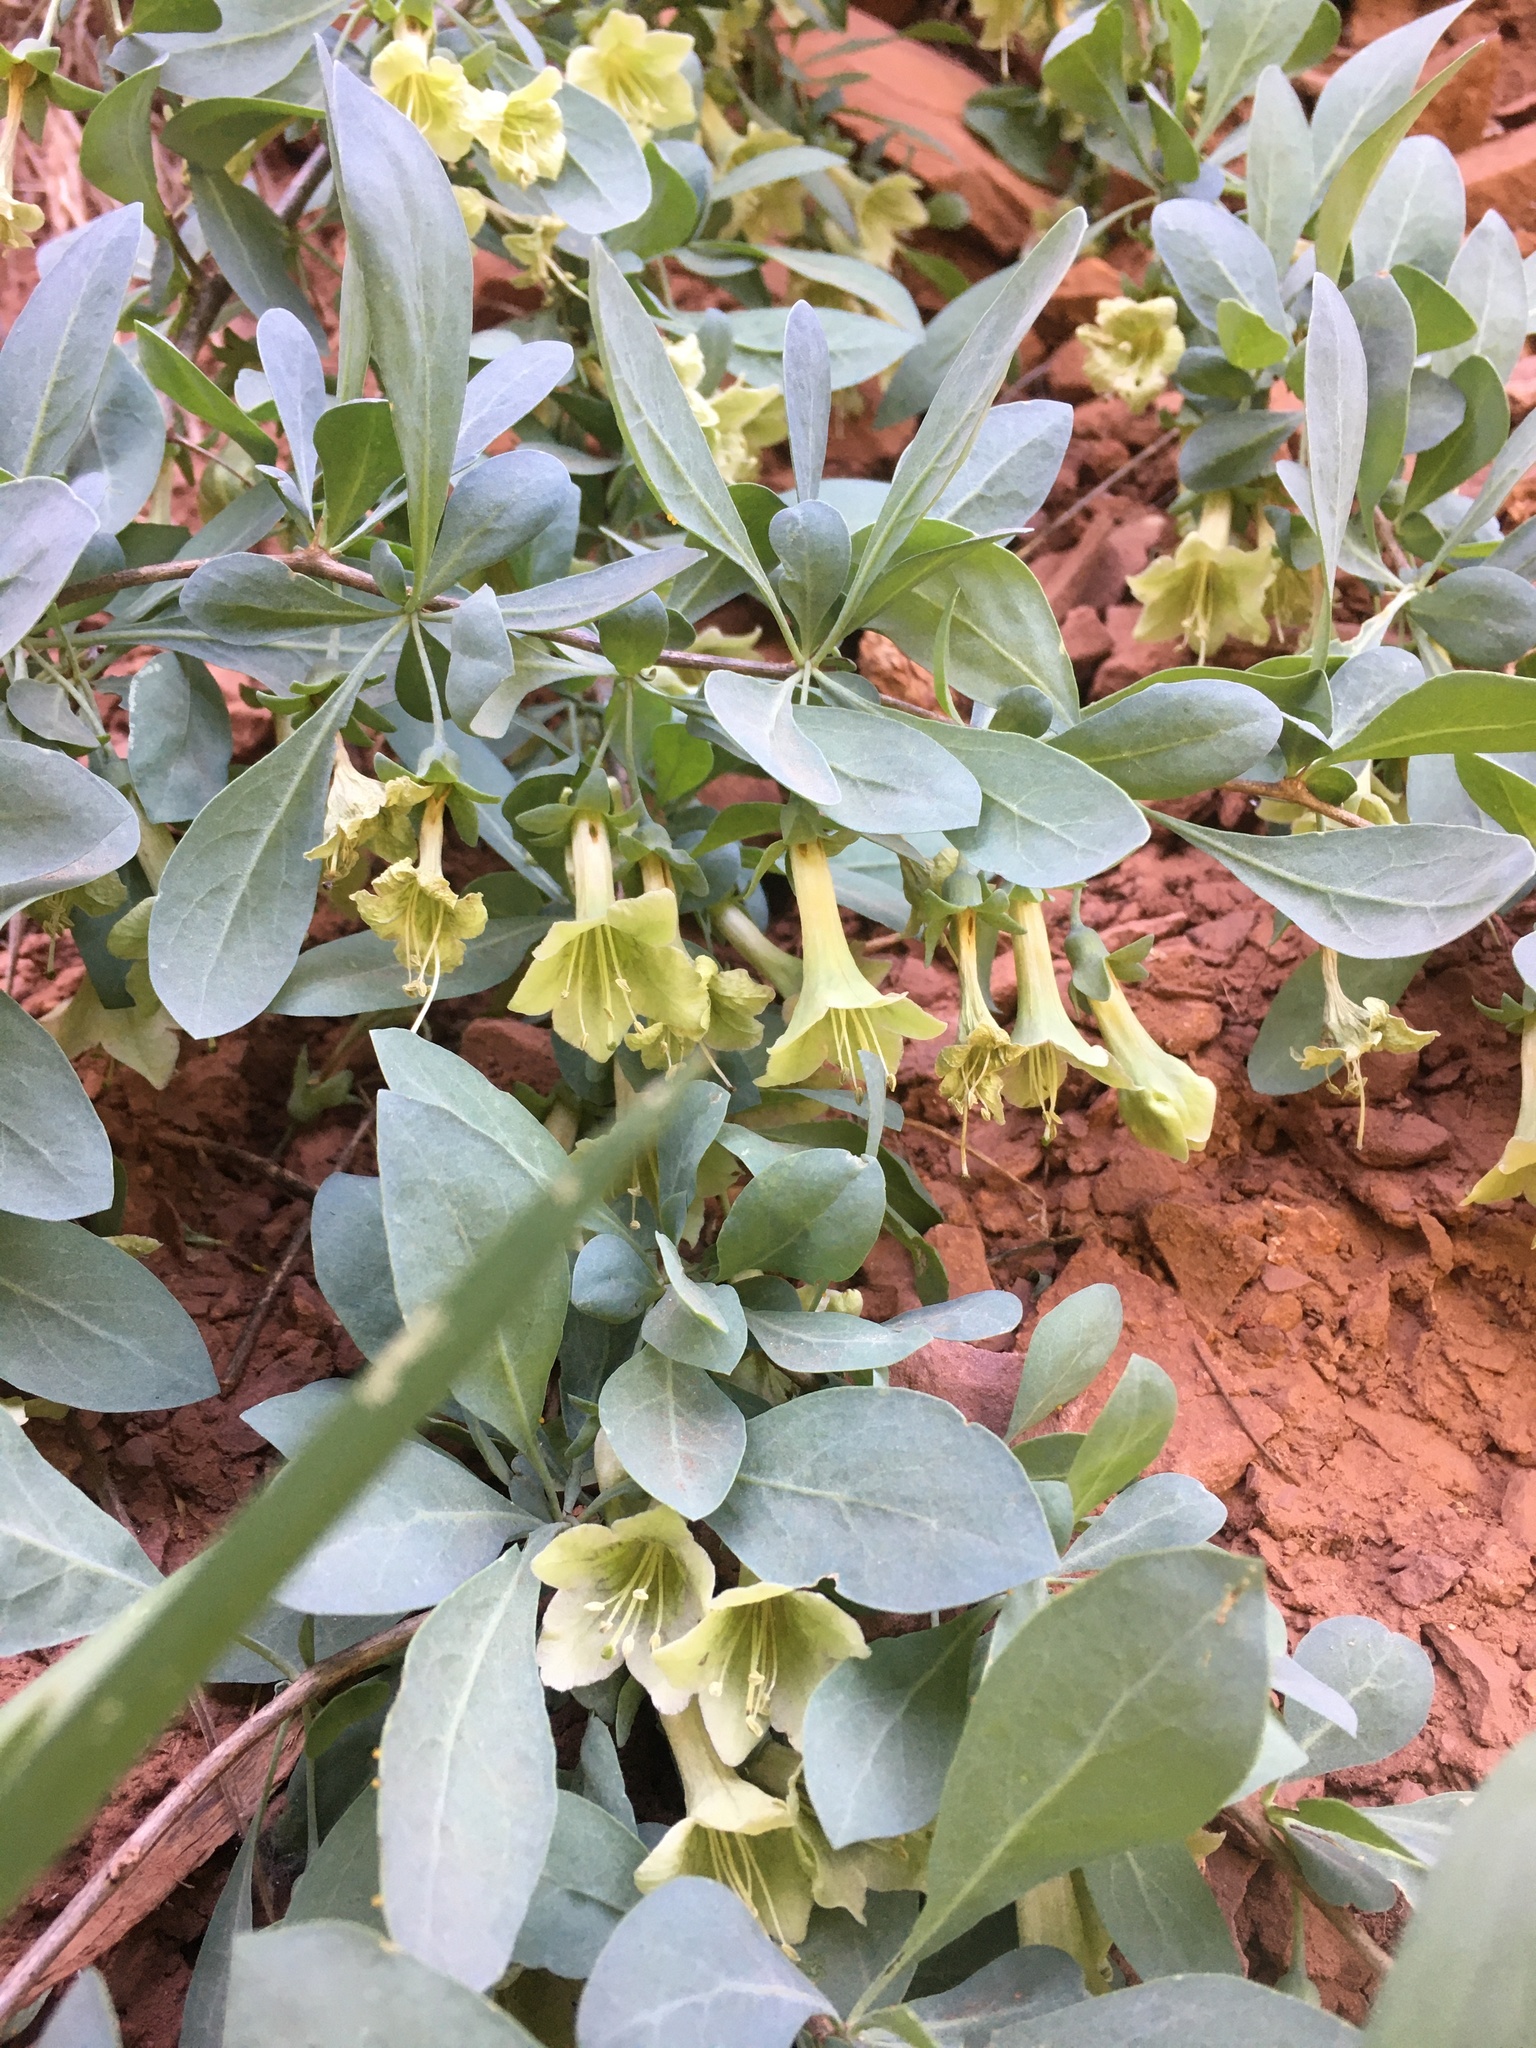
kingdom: Plantae
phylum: Tracheophyta
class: Magnoliopsida
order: Solanales
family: Solanaceae
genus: Lycium
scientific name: Lycium pallidum
